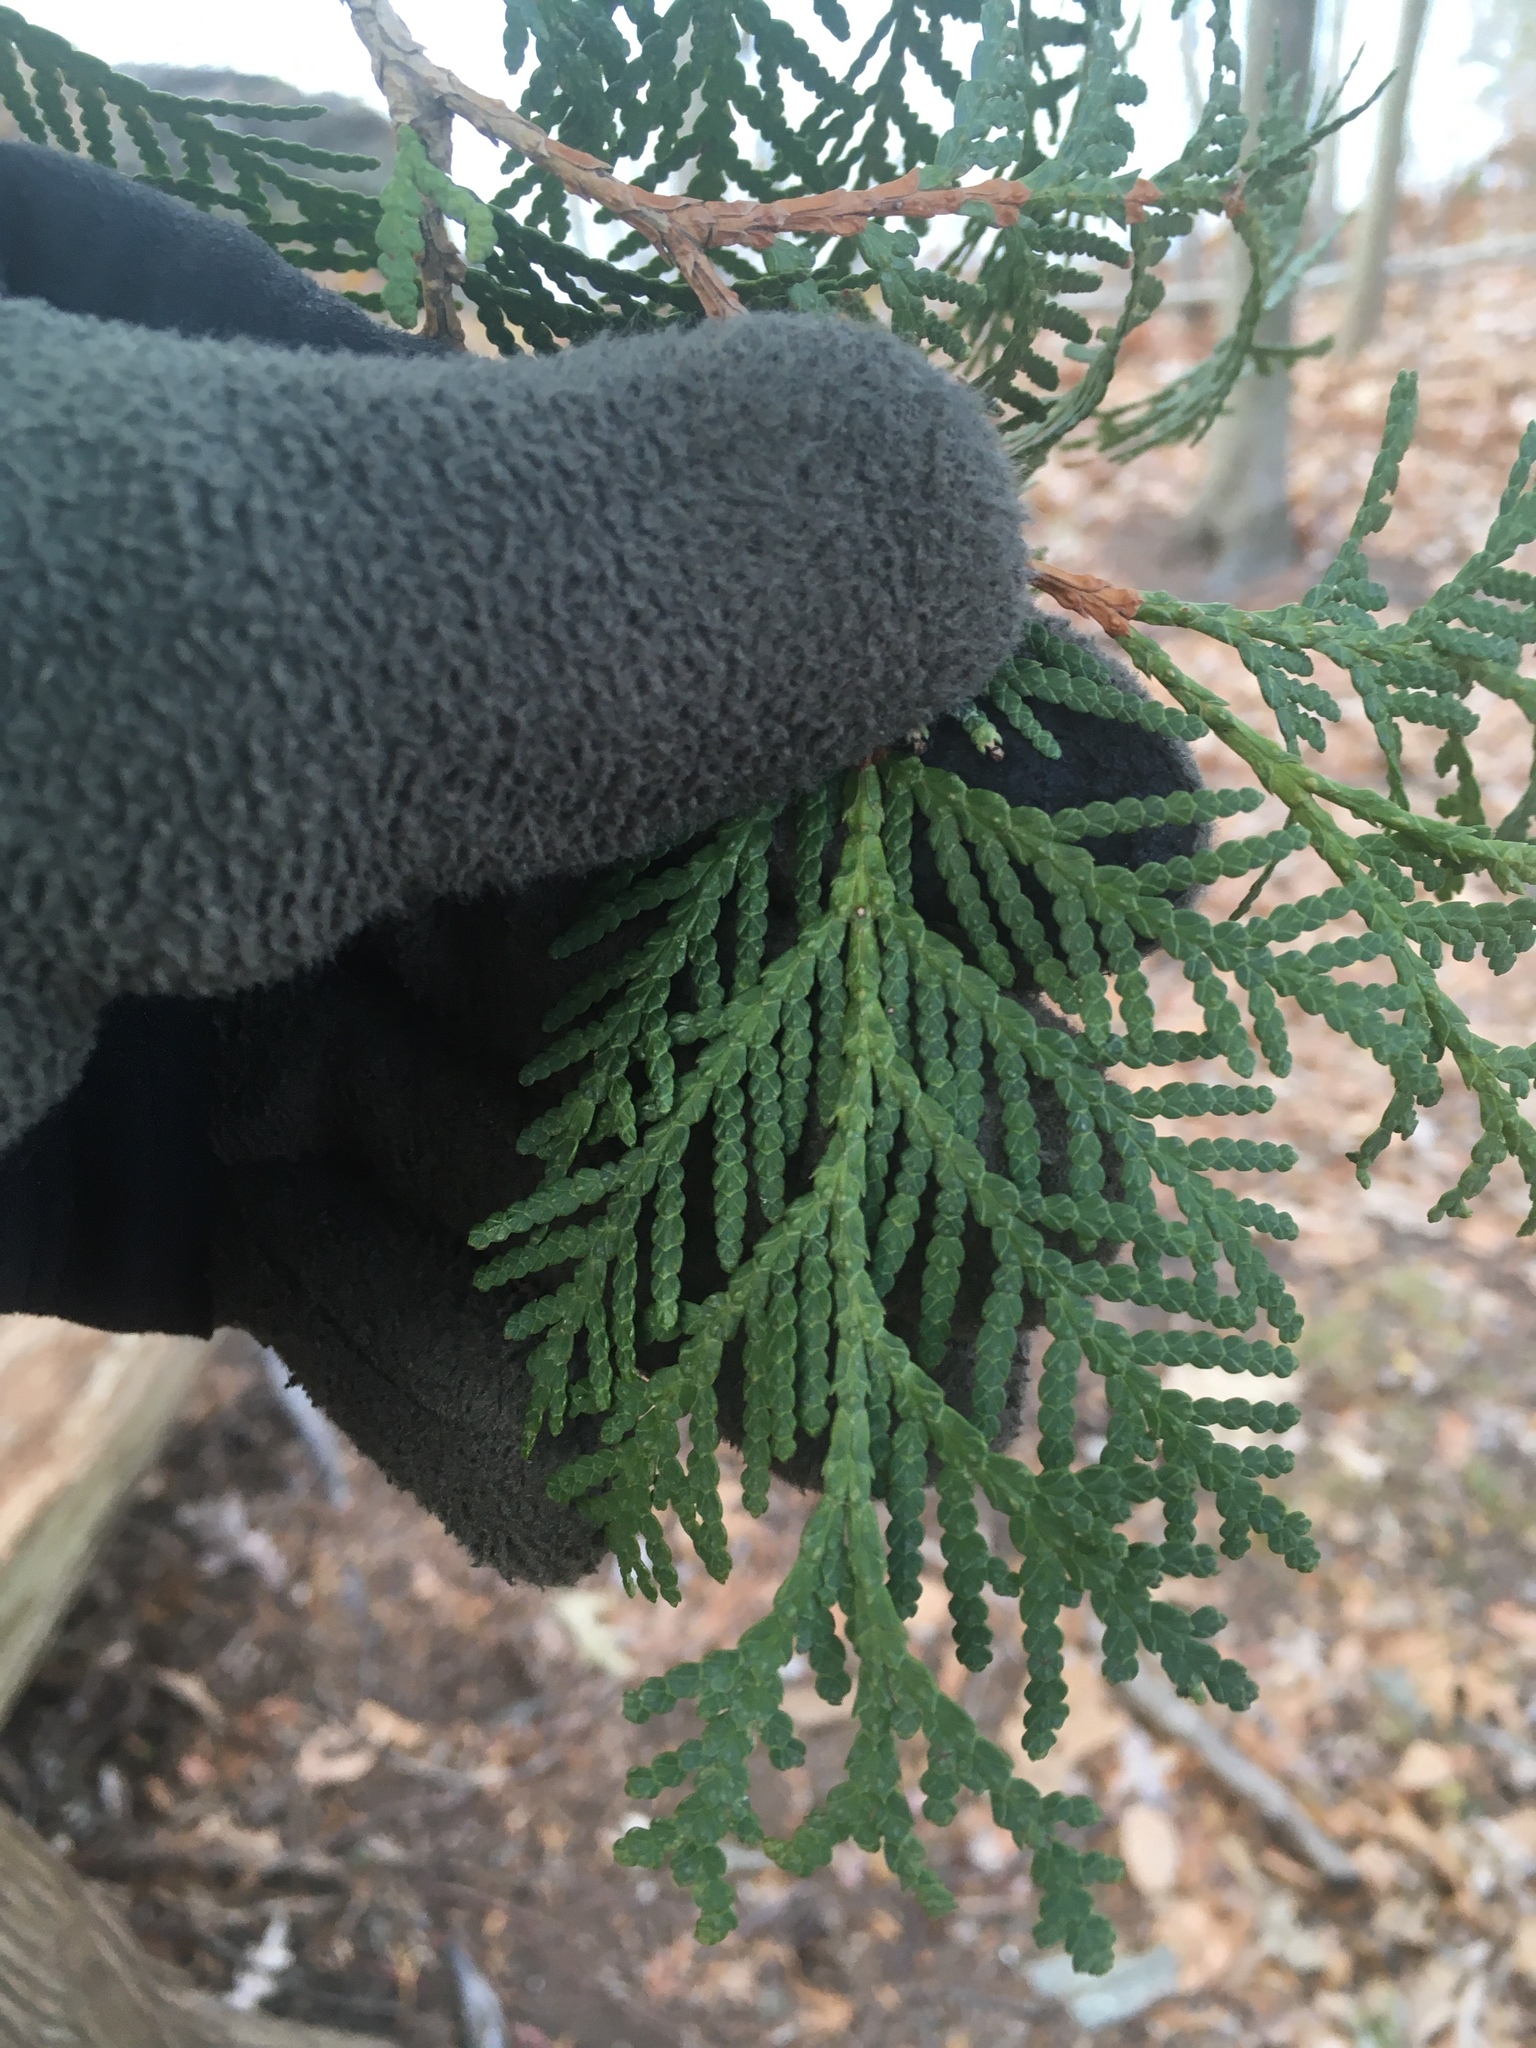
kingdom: Plantae
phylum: Tracheophyta
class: Pinopsida
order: Pinales
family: Cupressaceae
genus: Thuja
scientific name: Thuja occidentalis
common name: Northern white-cedar
